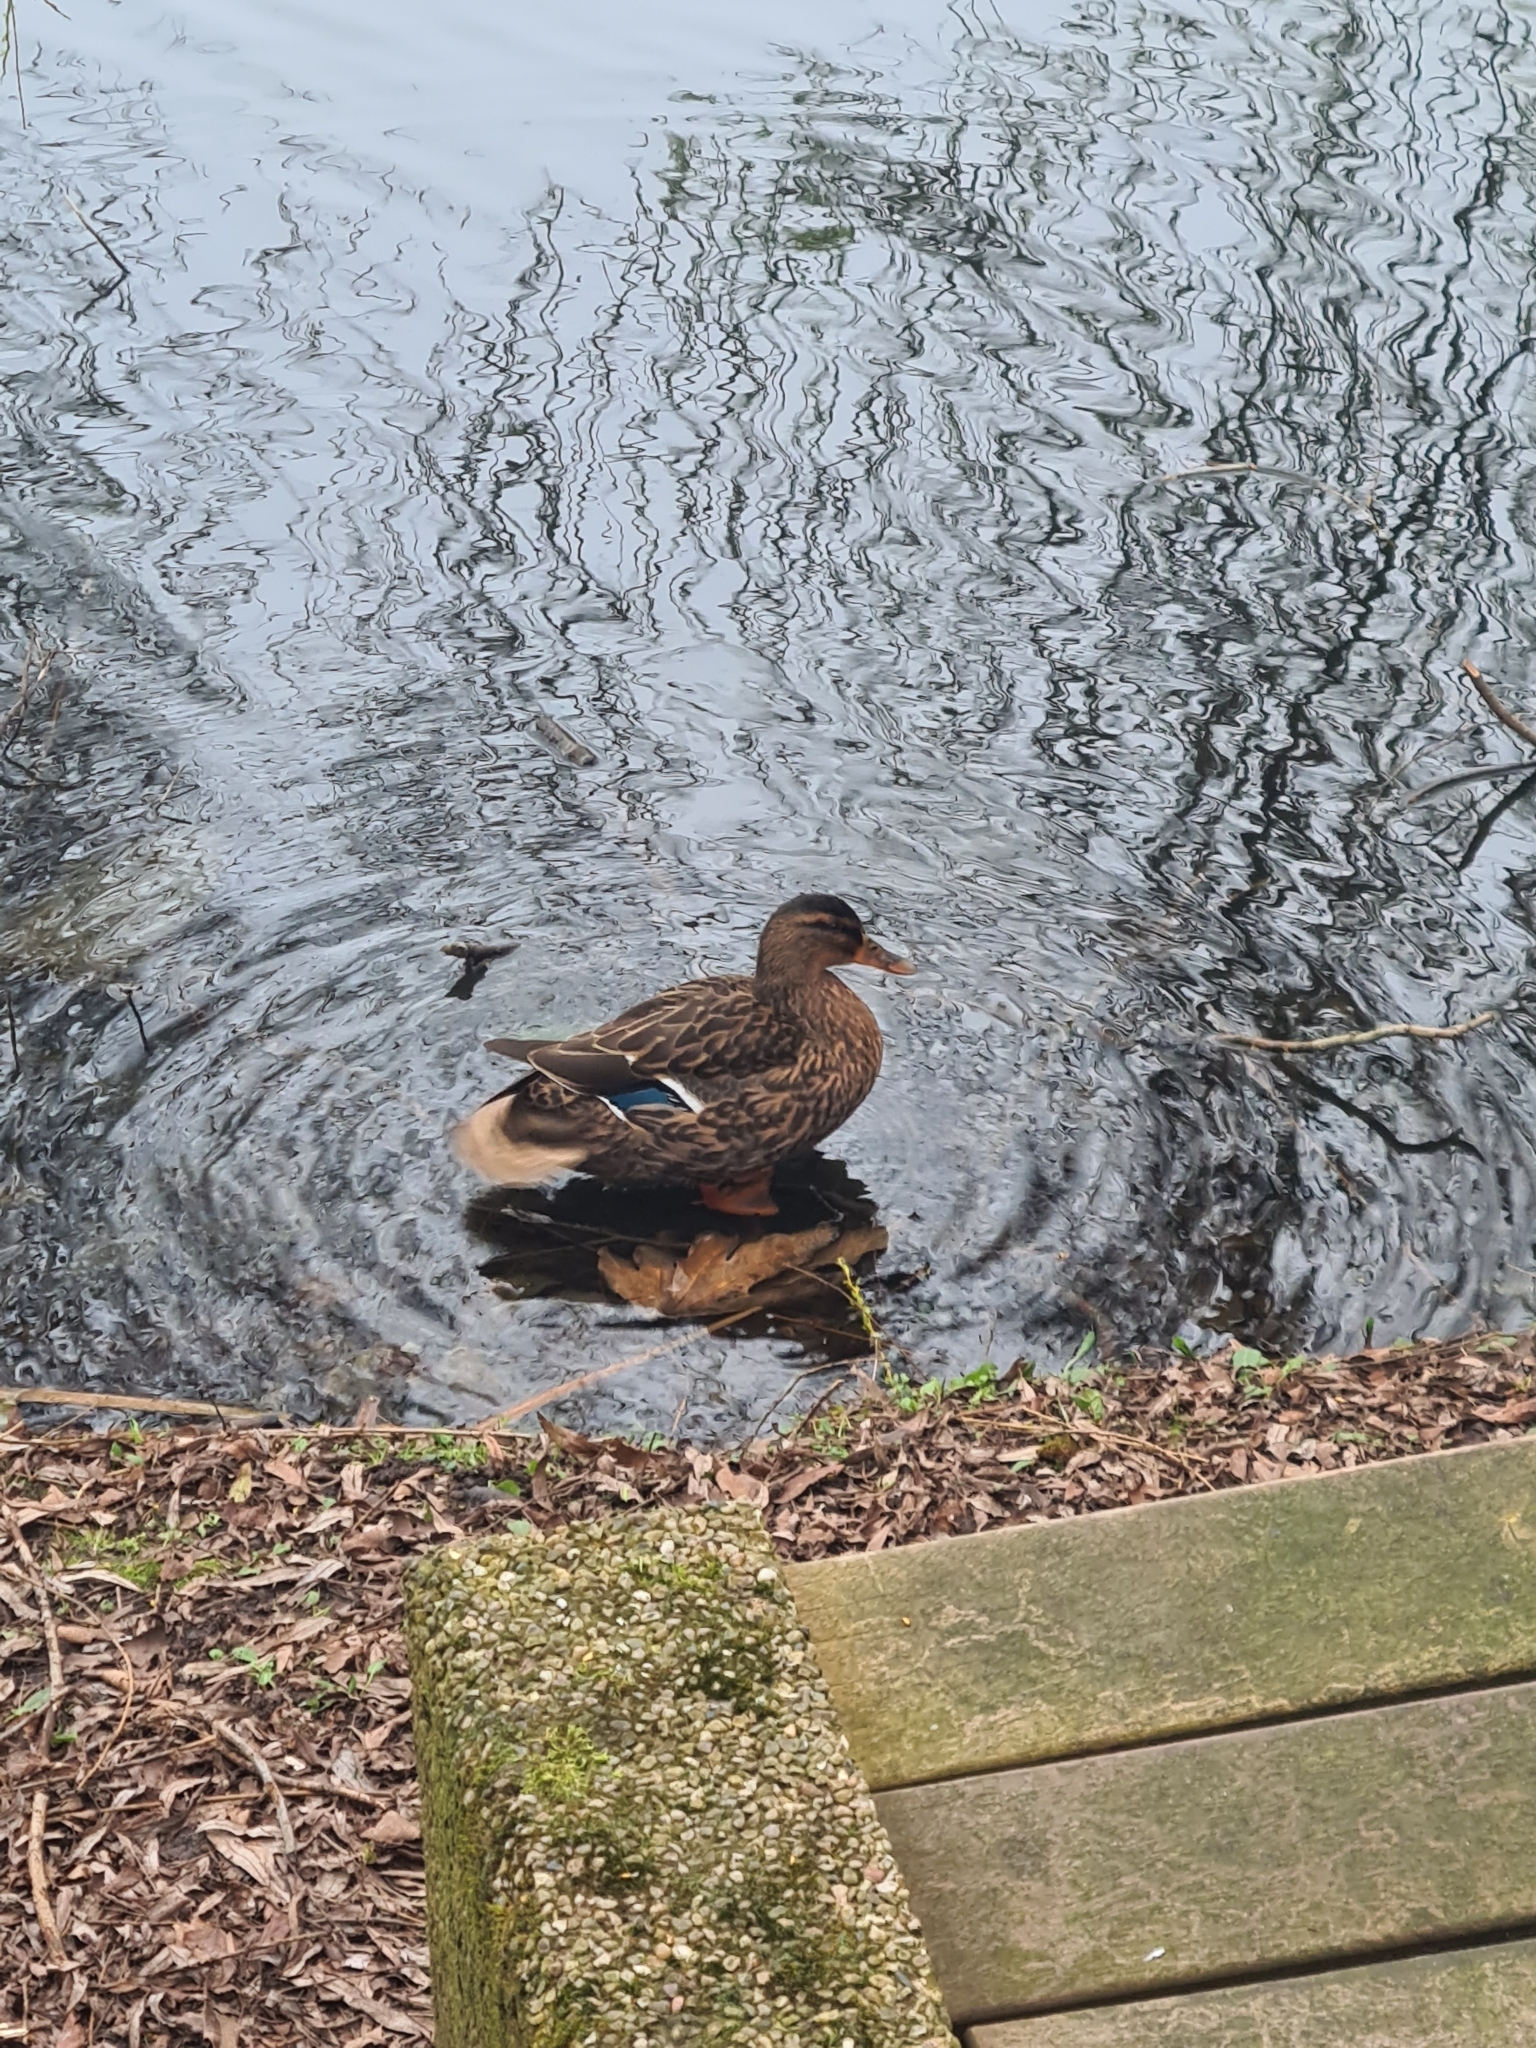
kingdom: Animalia
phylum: Chordata
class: Aves
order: Anseriformes
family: Anatidae
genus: Anas
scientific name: Anas platyrhynchos
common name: Mallard
